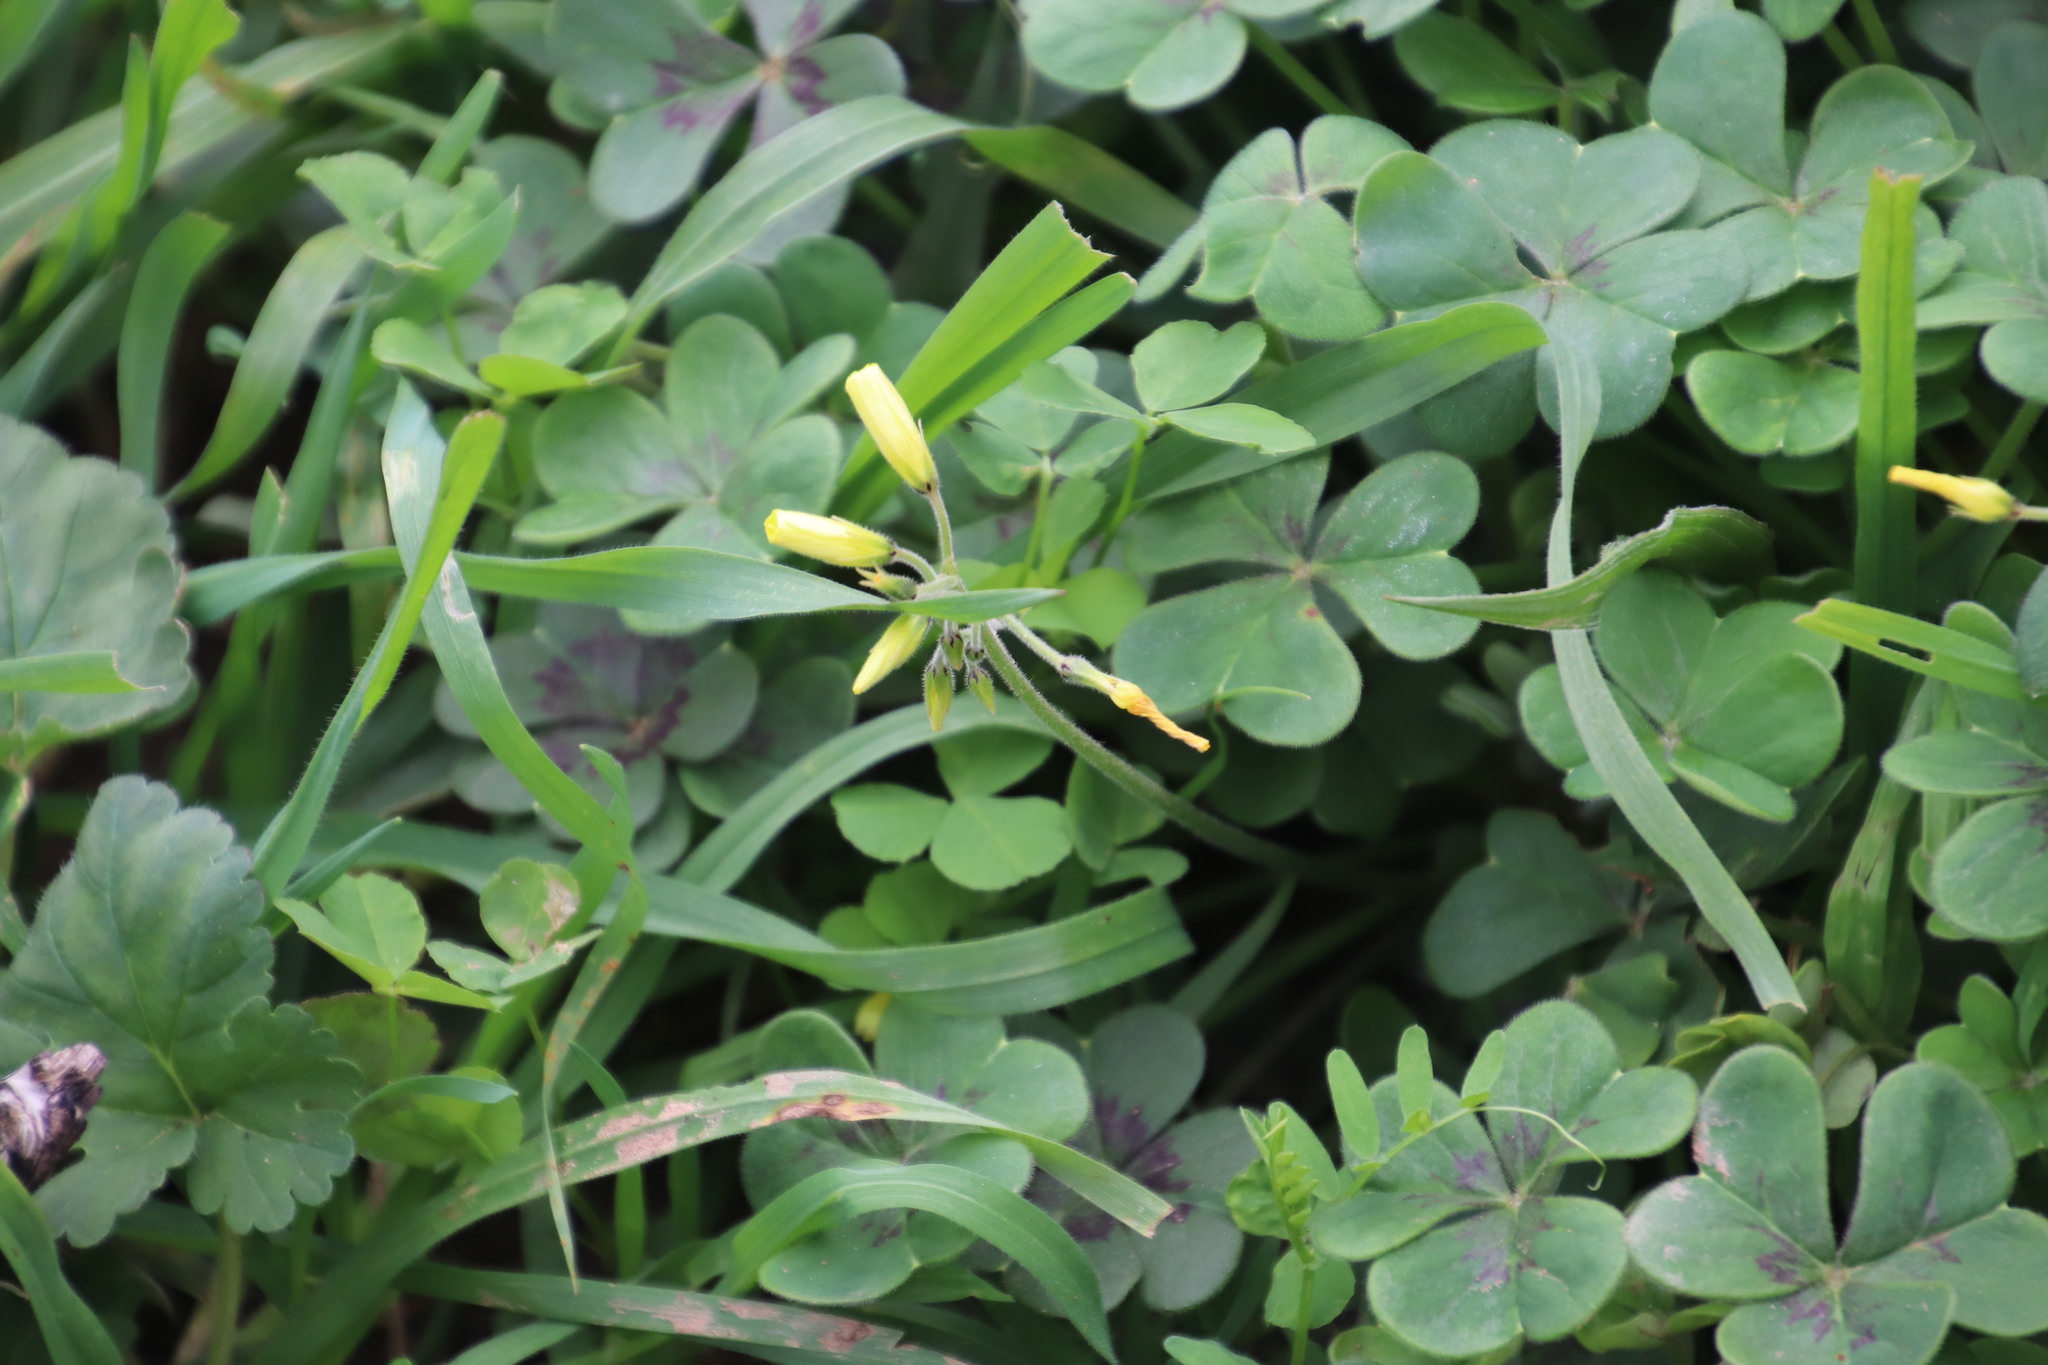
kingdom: Plantae
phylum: Tracheophyta
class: Magnoliopsida
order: Oxalidales
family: Oxalidaceae
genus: Oxalis
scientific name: Oxalis pes-caprae
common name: Bermuda-buttercup
